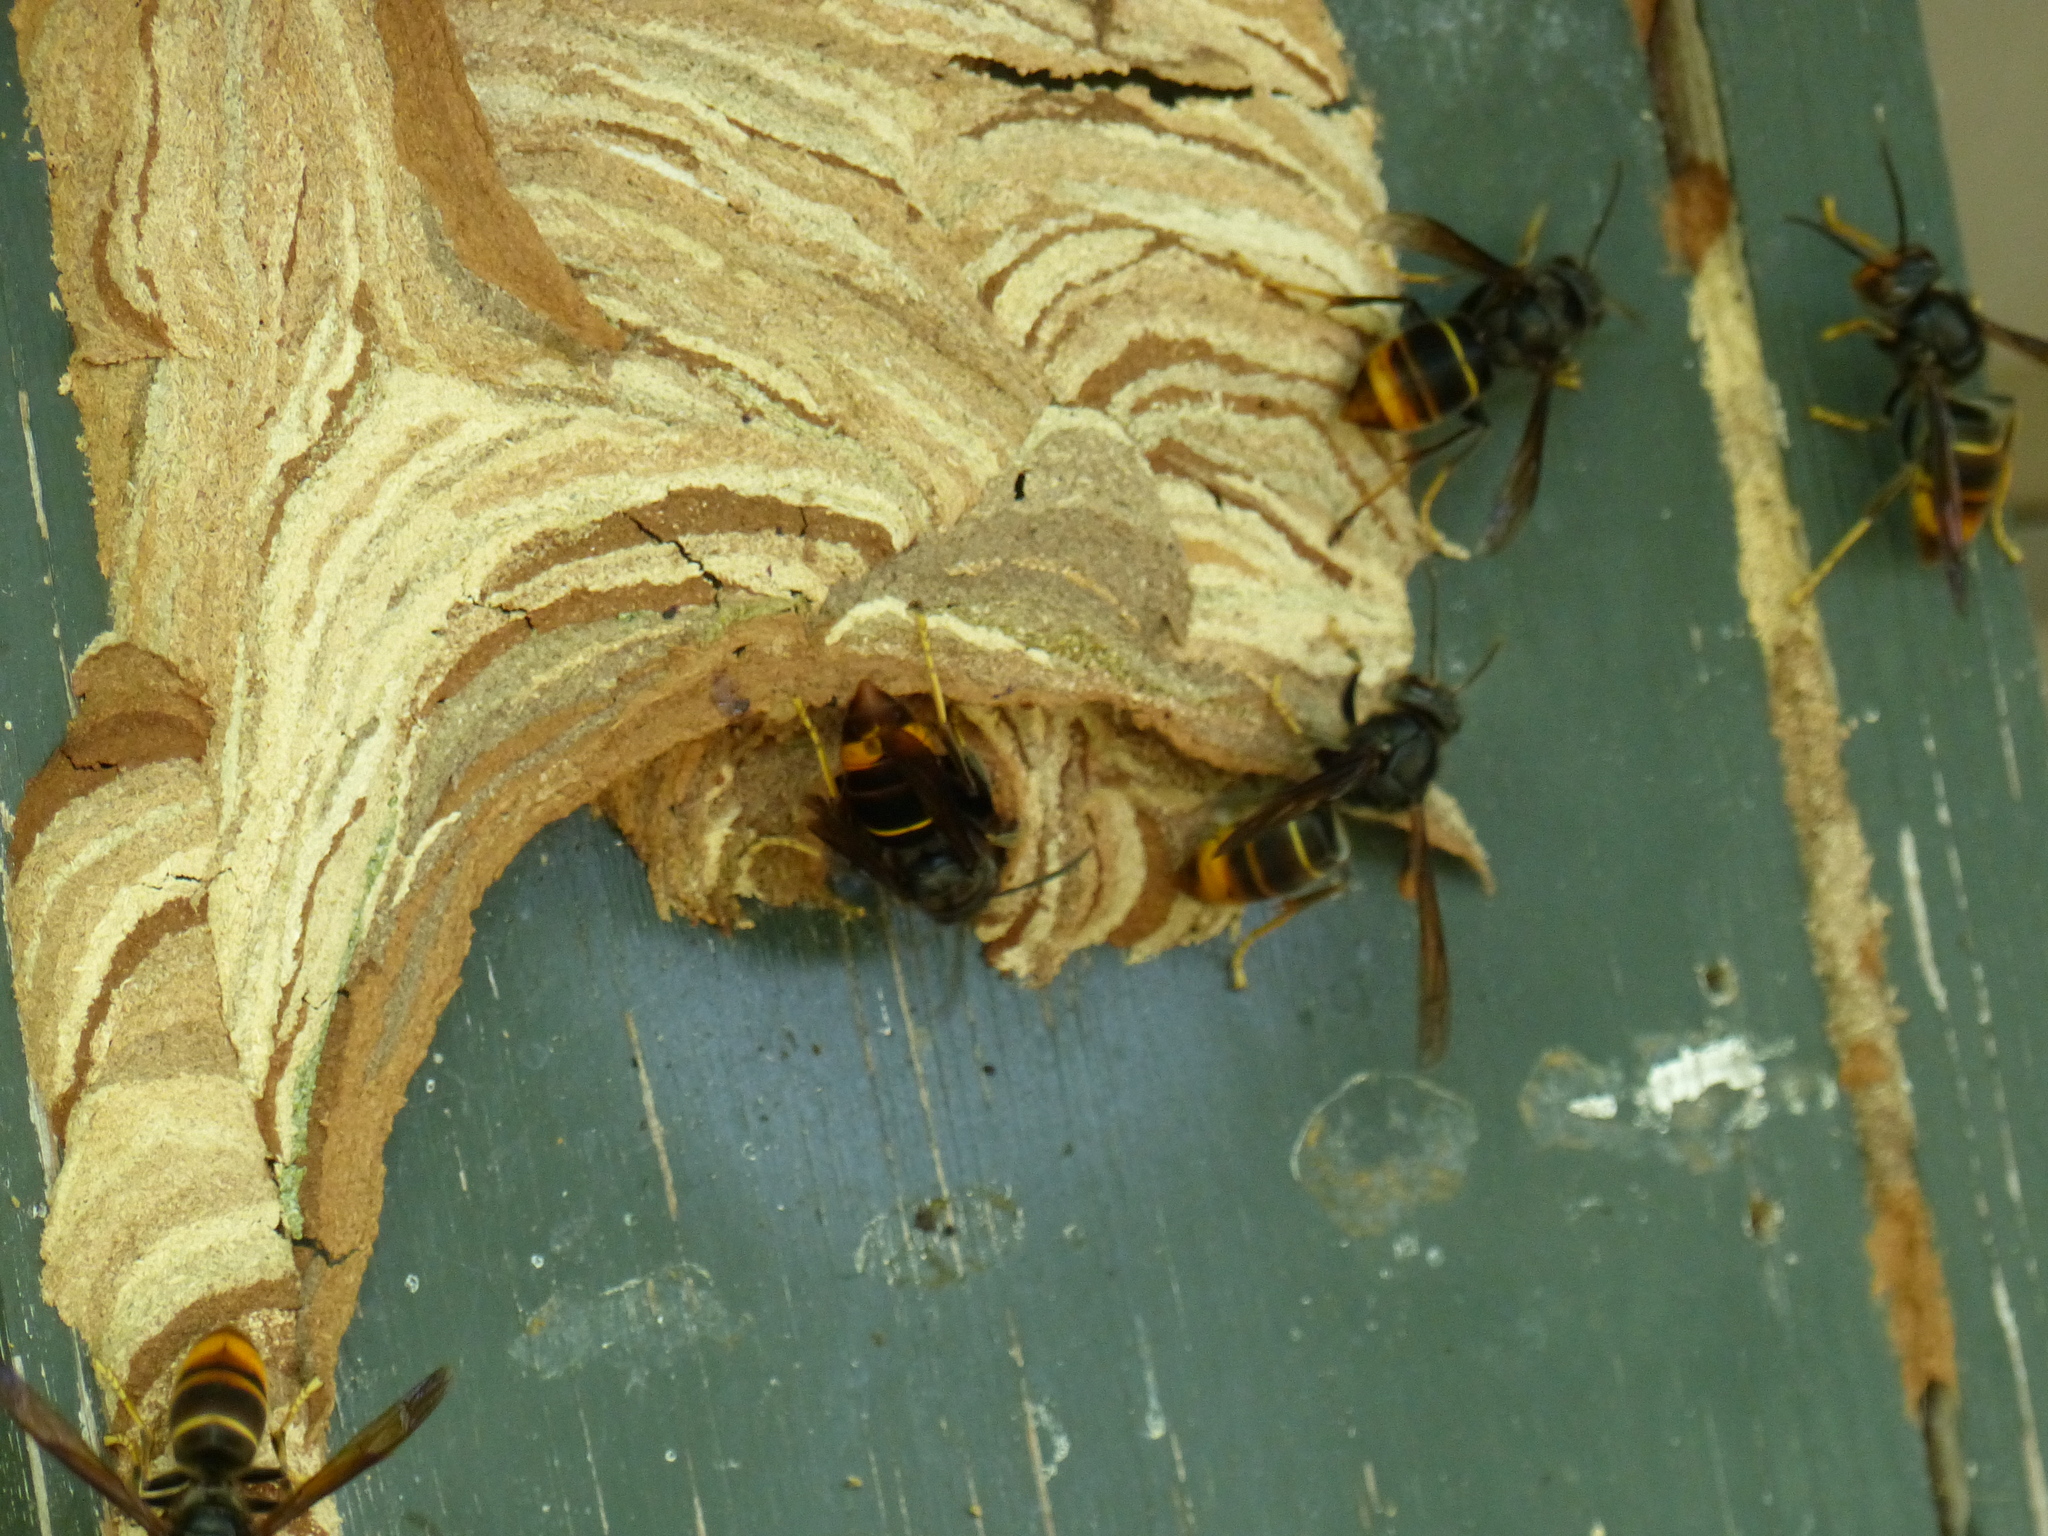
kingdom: Animalia
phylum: Arthropoda
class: Insecta
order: Hymenoptera
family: Vespidae
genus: Vespa
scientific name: Vespa velutina
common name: Asian hornet
